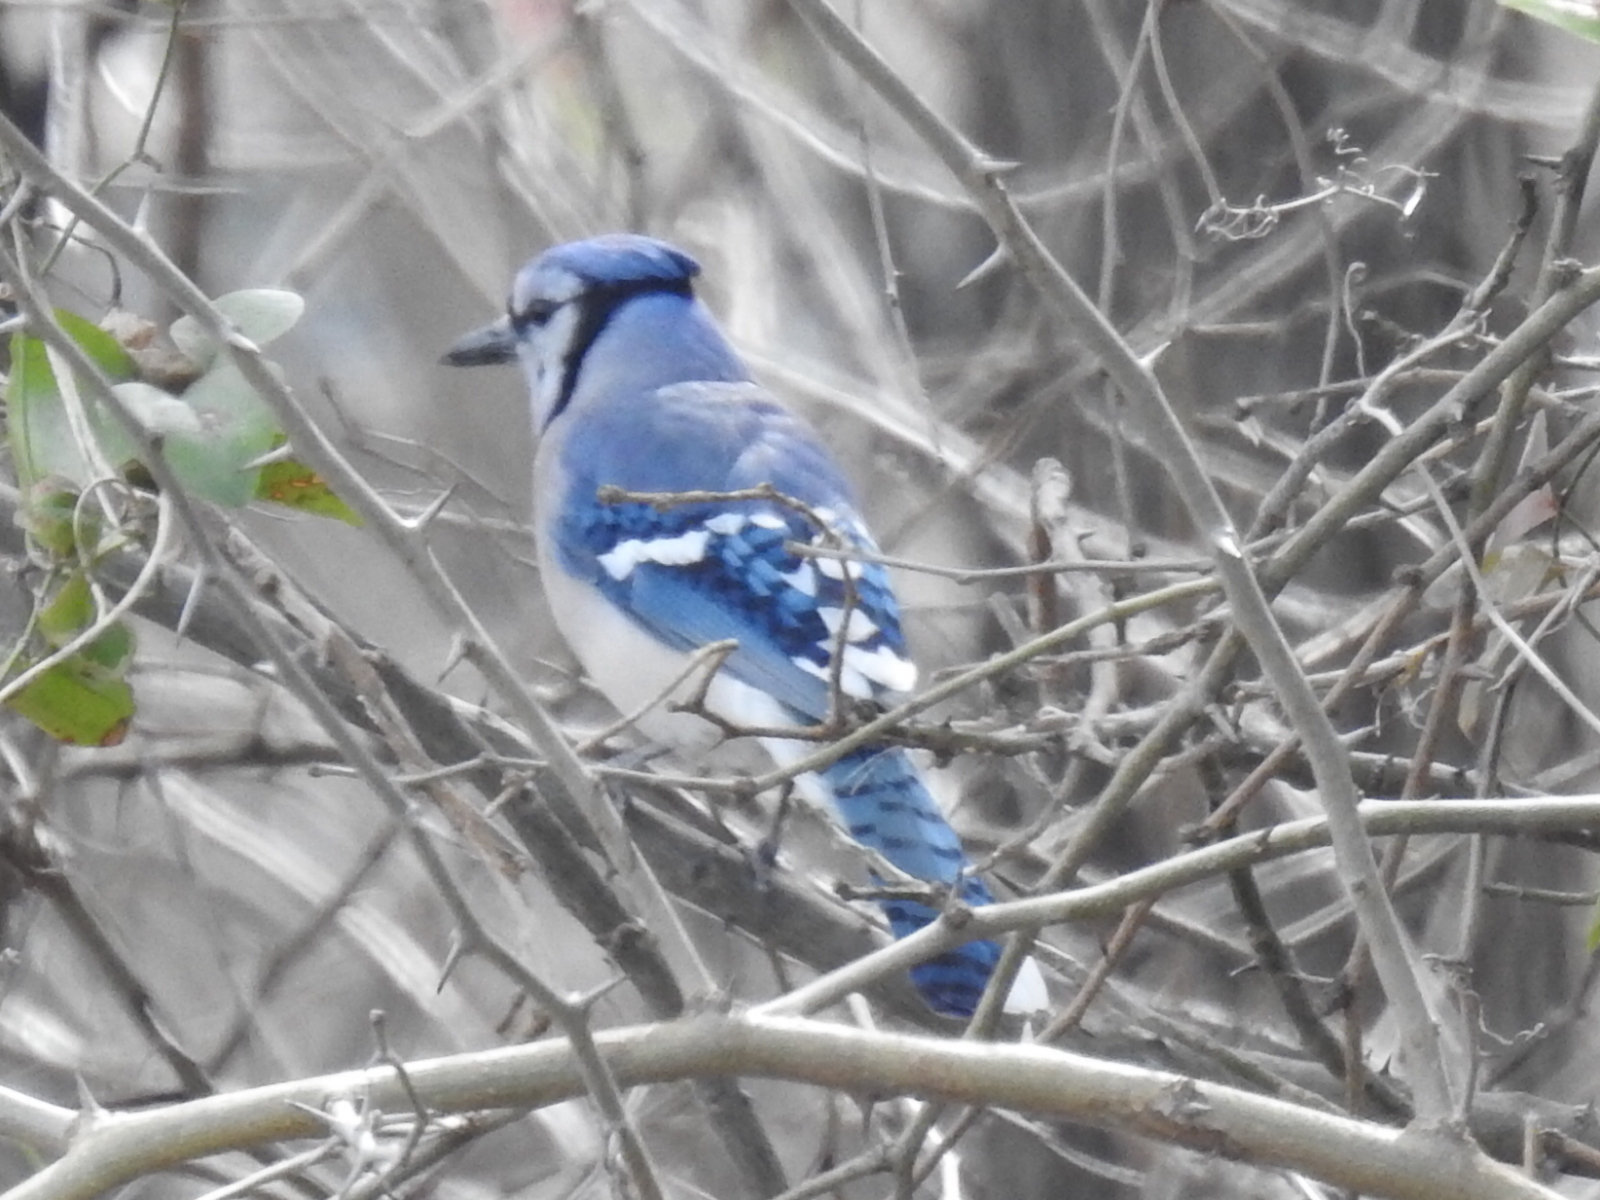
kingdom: Animalia
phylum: Chordata
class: Aves
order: Passeriformes
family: Corvidae
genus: Cyanocitta
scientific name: Cyanocitta cristata
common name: Blue jay
